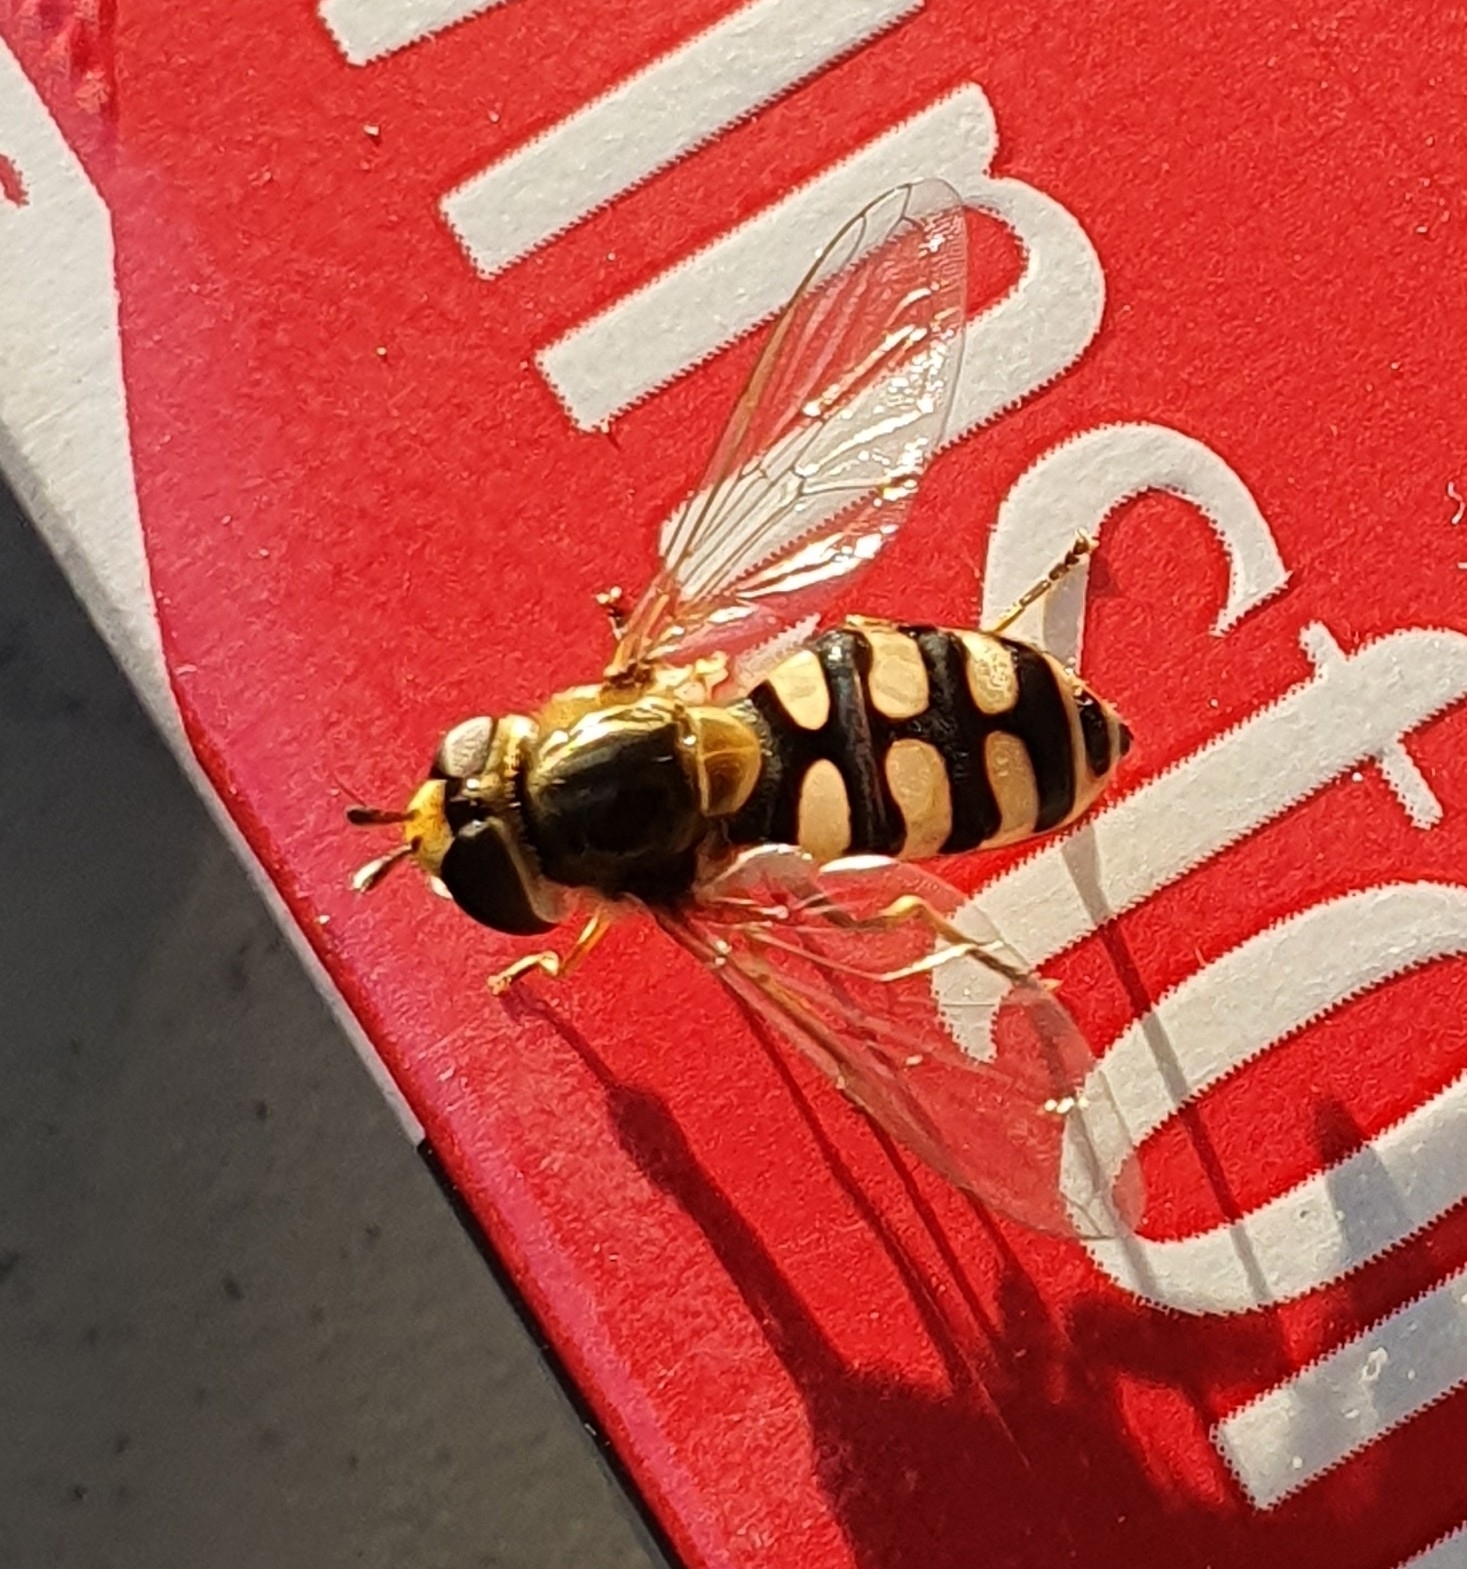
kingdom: Animalia
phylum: Arthropoda
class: Insecta
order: Diptera
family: Syrphidae
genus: Eupeodes
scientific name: Eupeodes corollae
